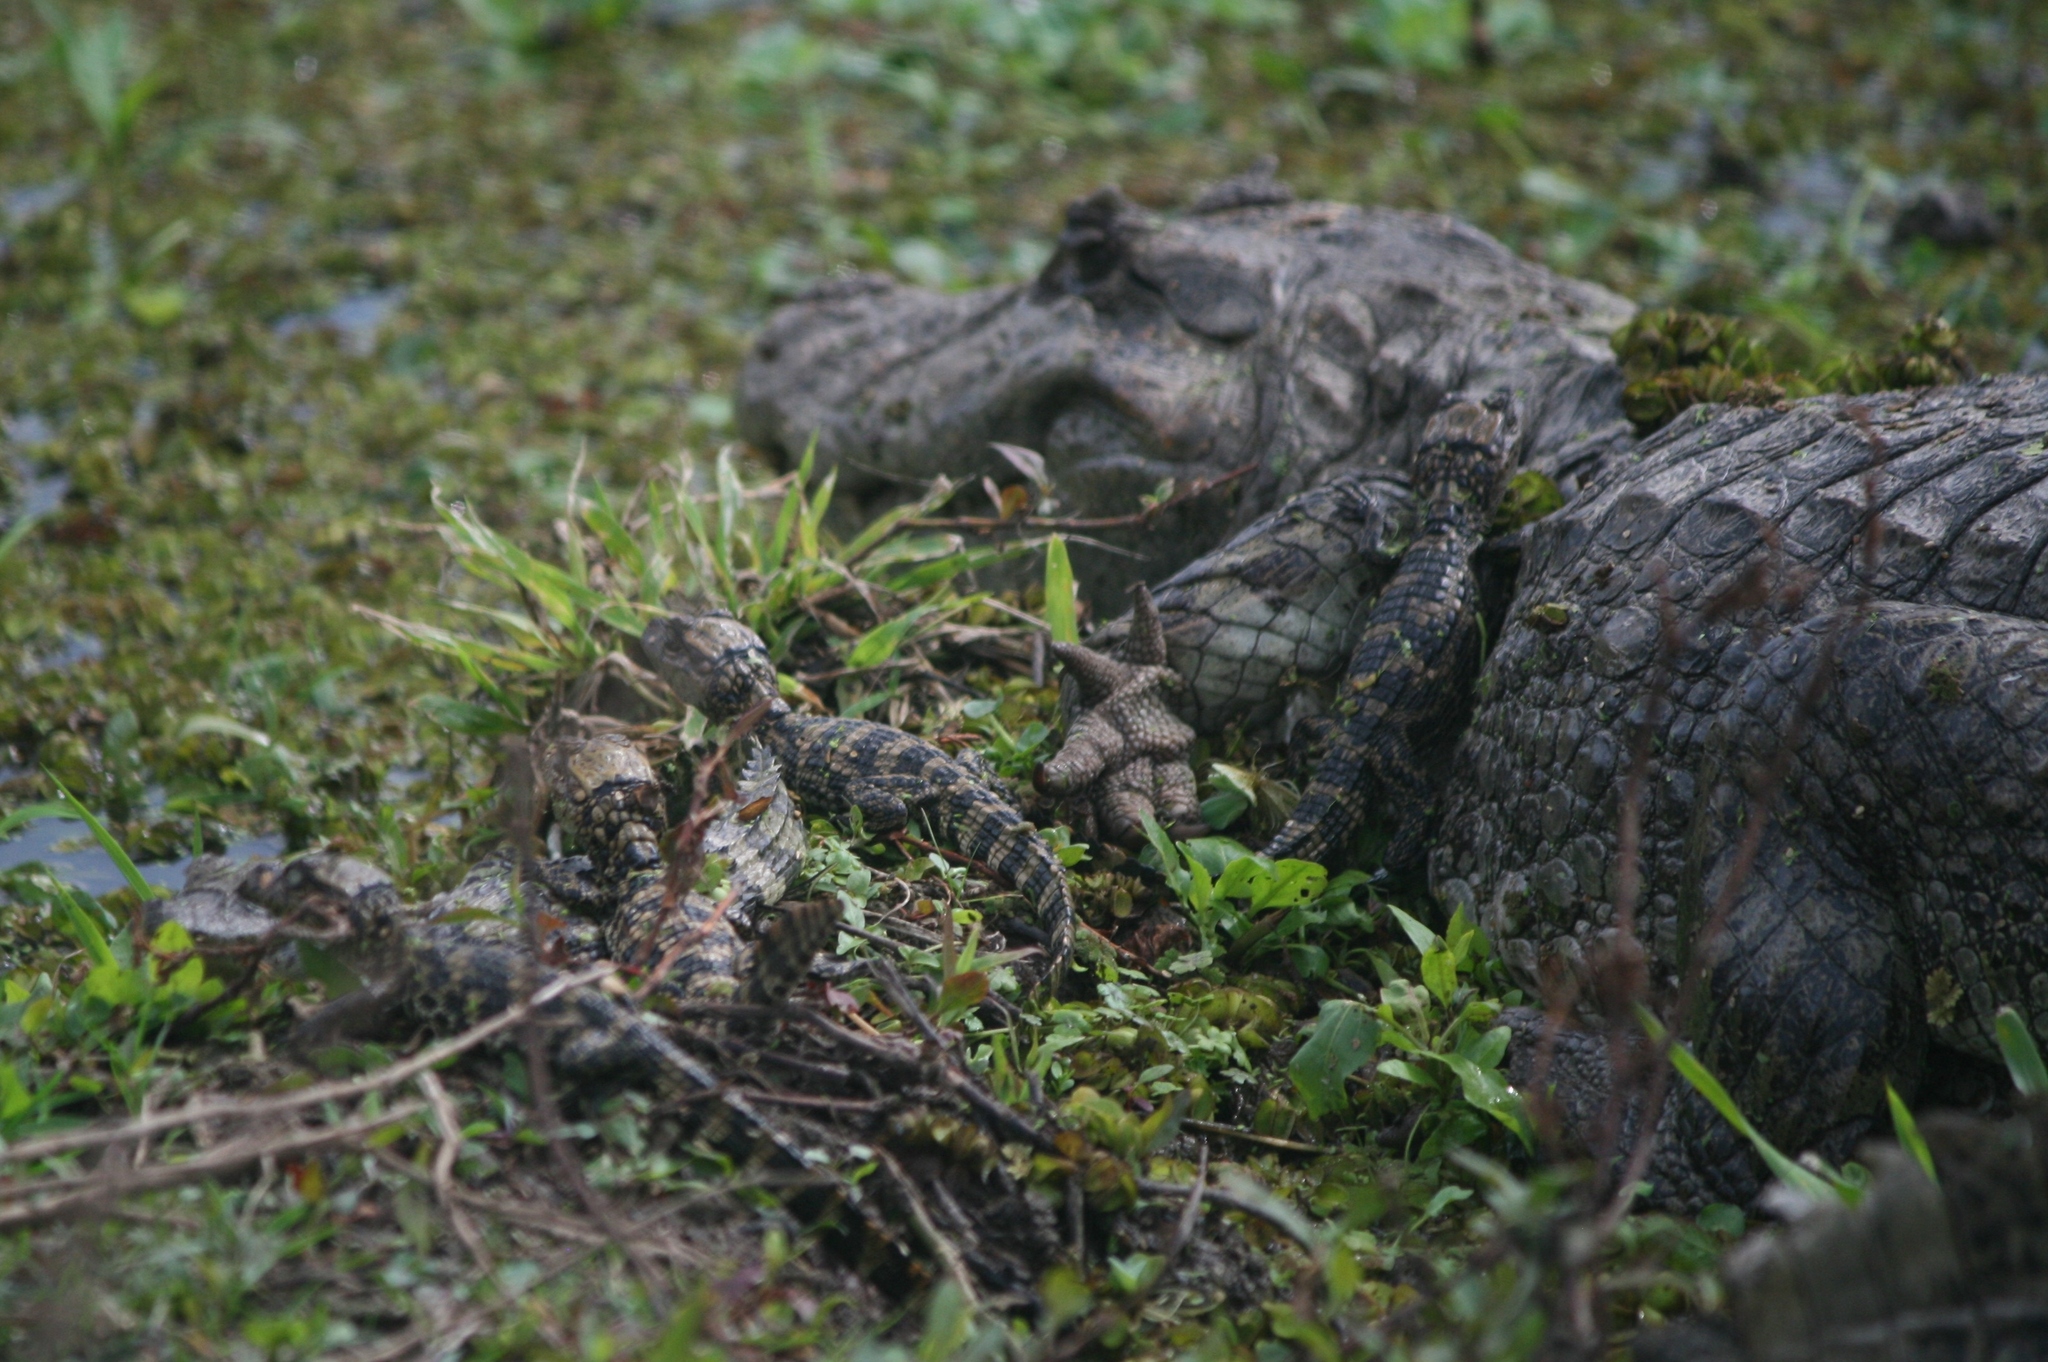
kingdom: Animalia
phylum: Chordata
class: Crocodylia
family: Alligatoridae
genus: Caiman
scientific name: Caiman latirostris
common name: Broad-snouted caiman
